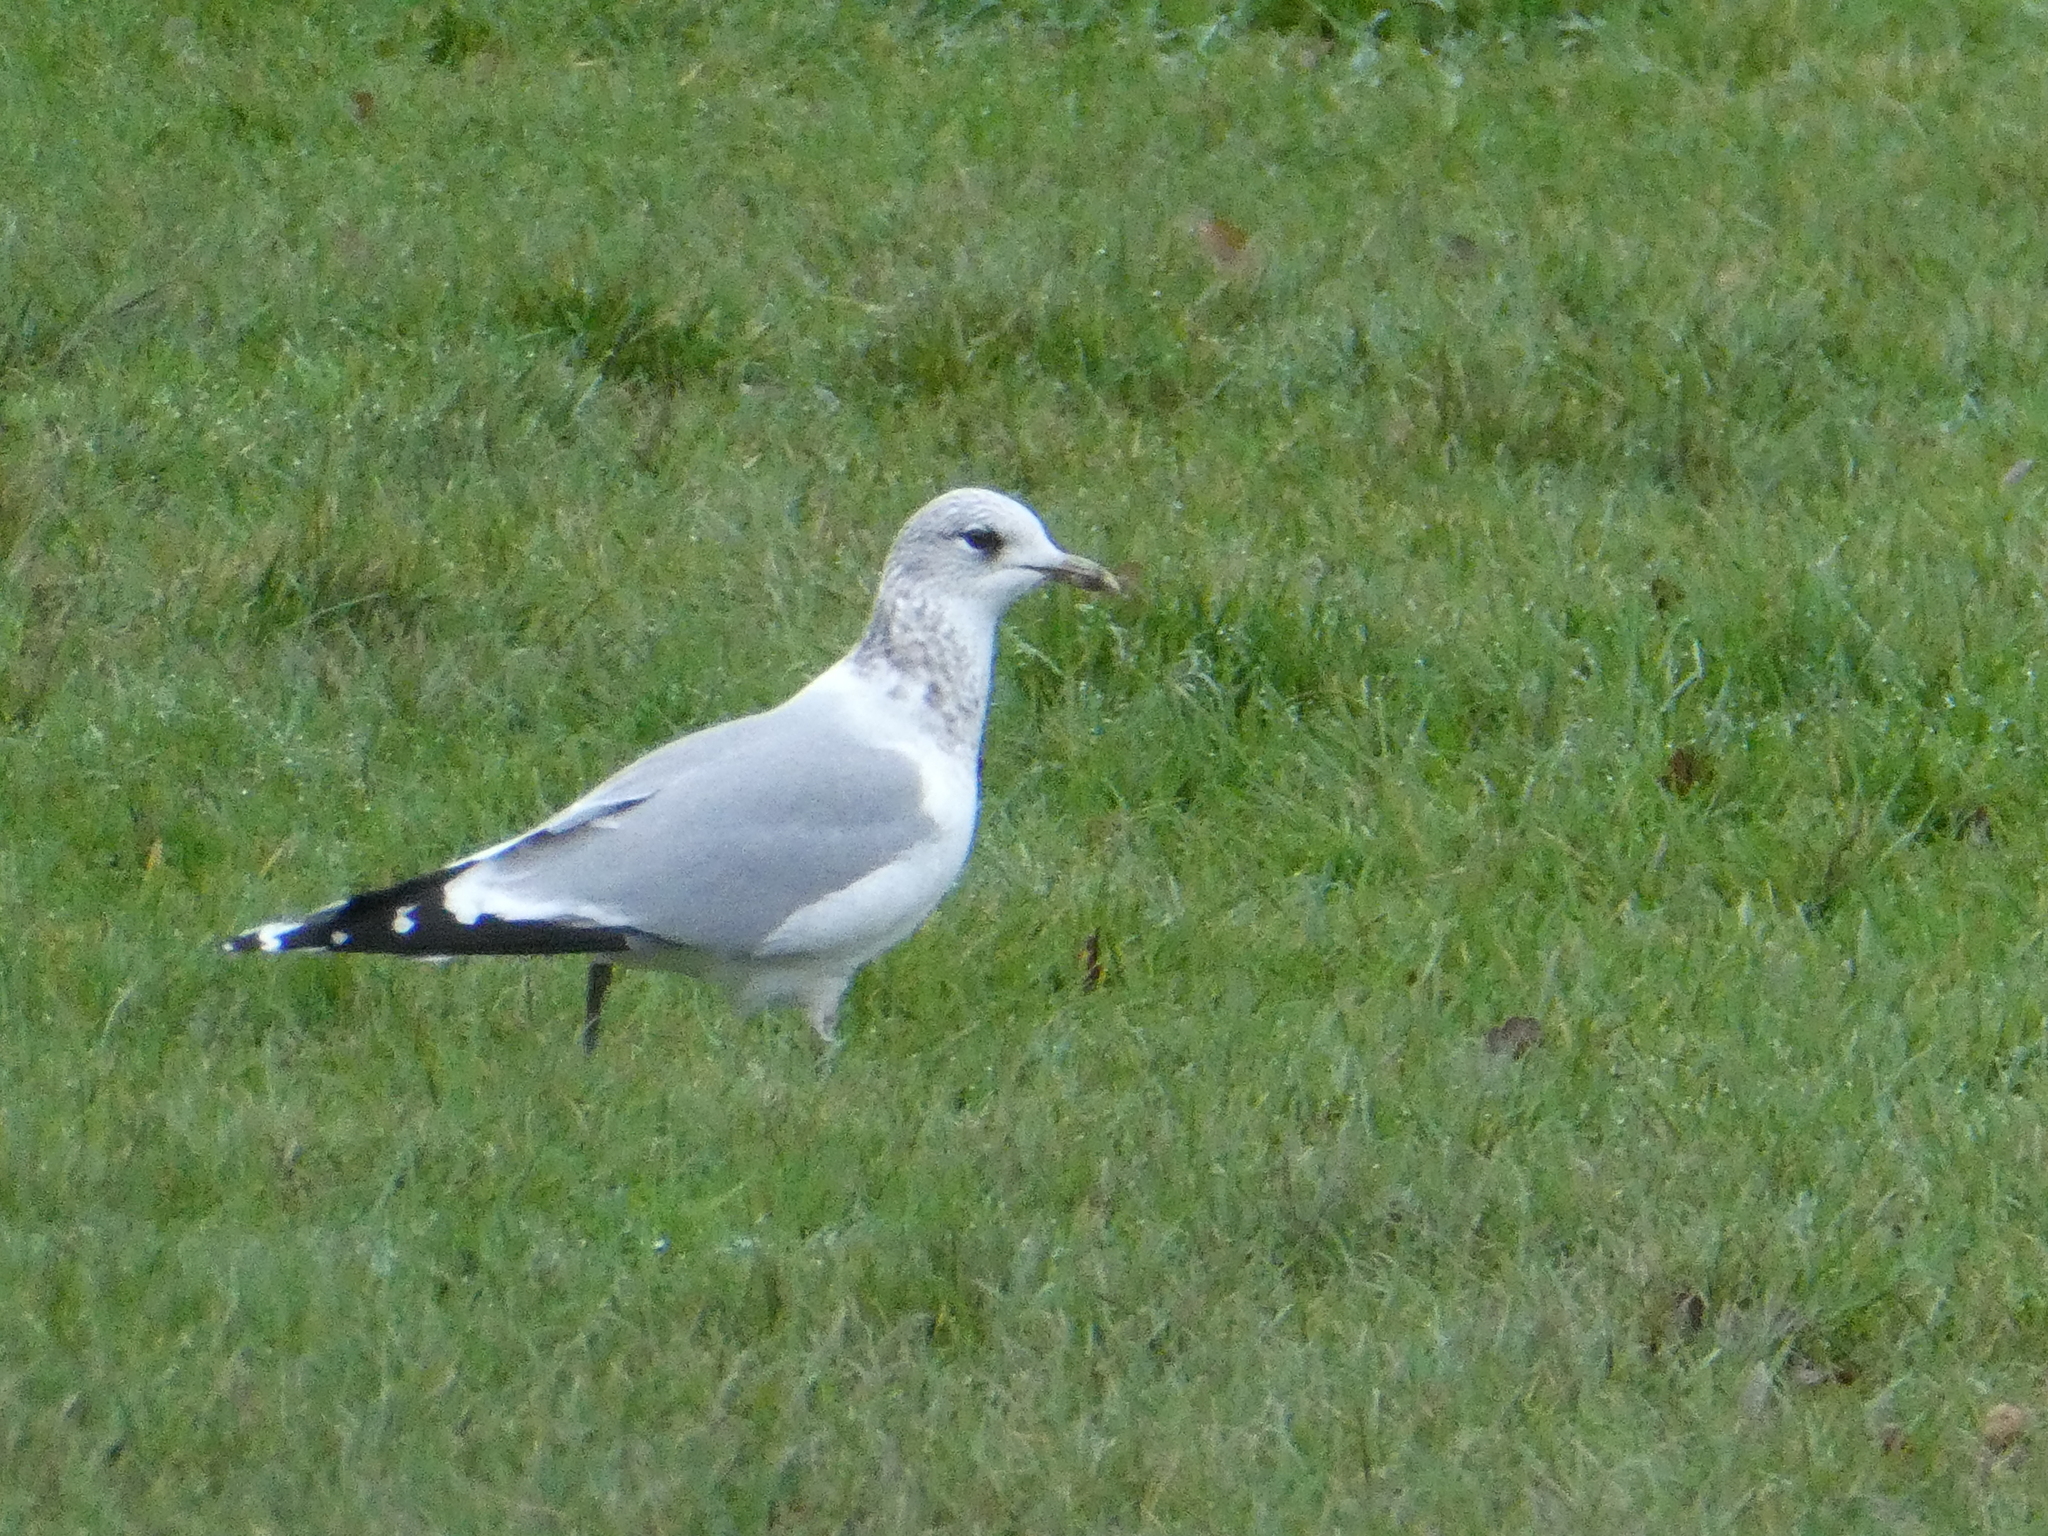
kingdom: Animalia
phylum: Chordata
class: Aves
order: Charadriiformes
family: Laridae
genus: Larus
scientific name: Larus canus
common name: Mew gull
